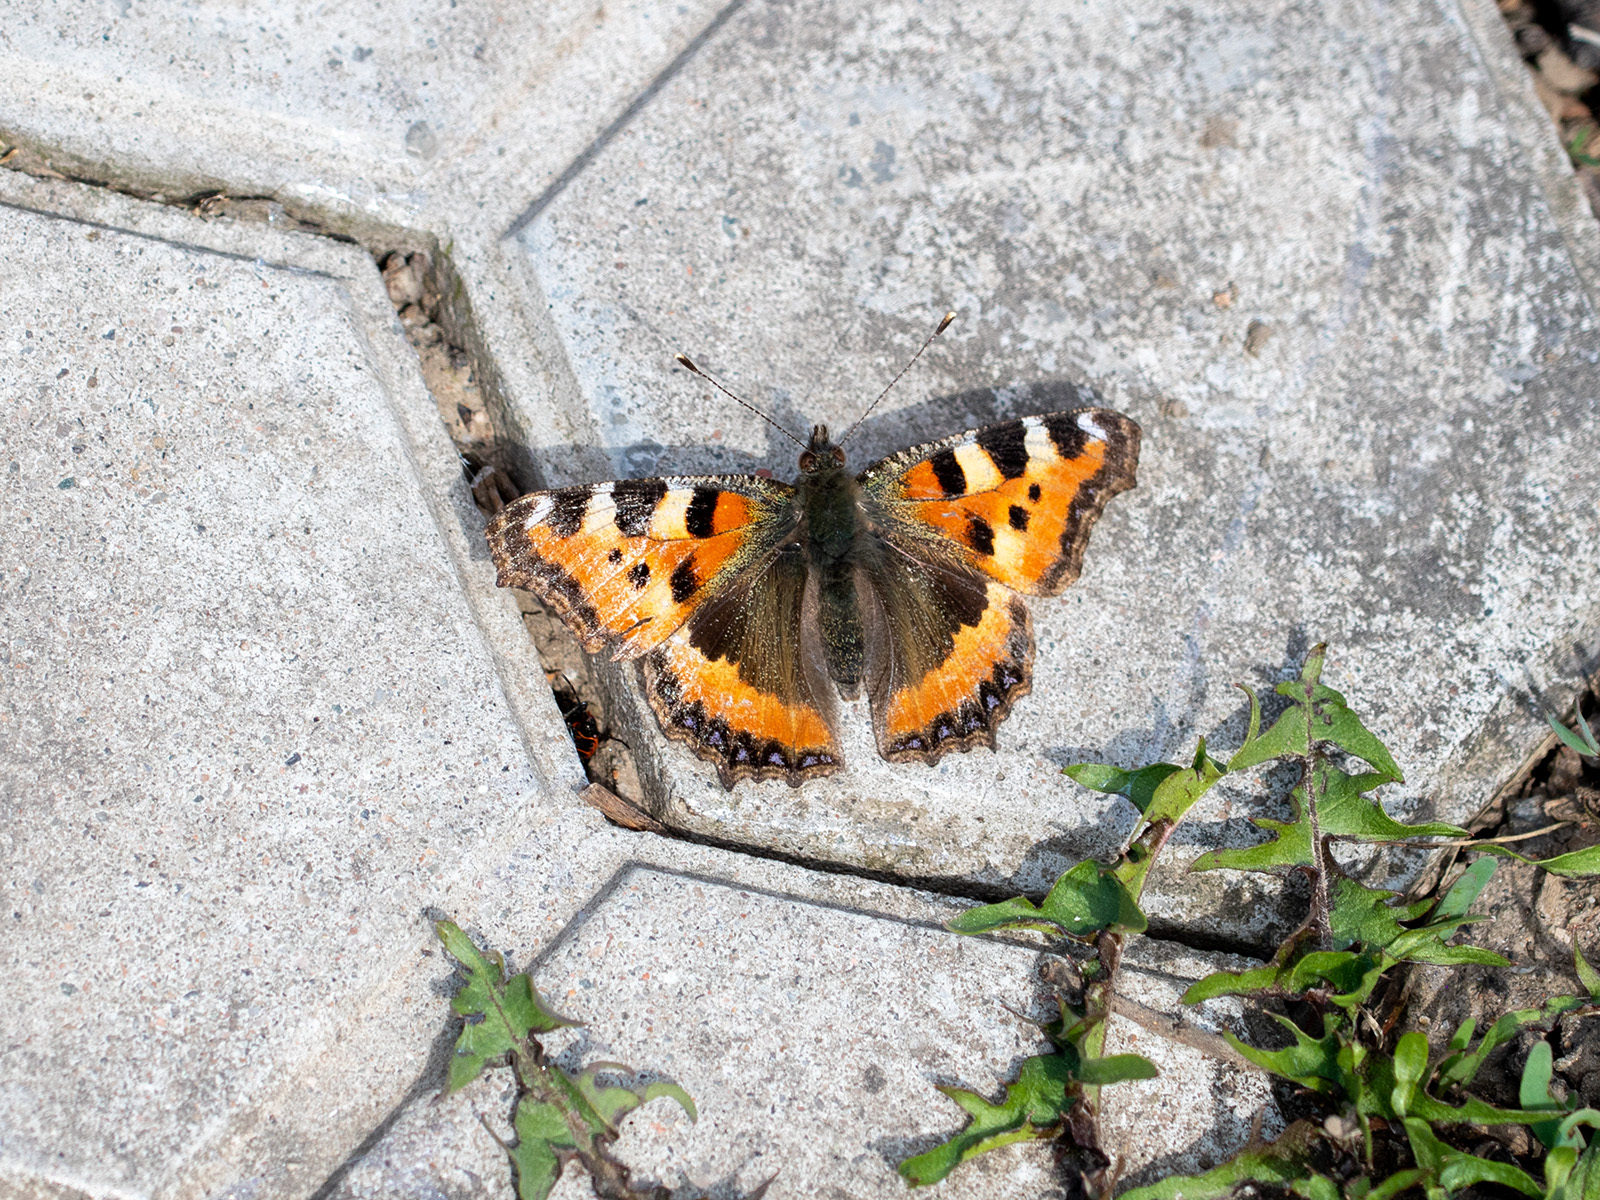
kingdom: Animalia
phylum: Arthropoda
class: Insecta
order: Lepidoptera
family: Nymphalidae
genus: Aglais
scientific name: Aglais urticae
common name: Small tortoiseshell
